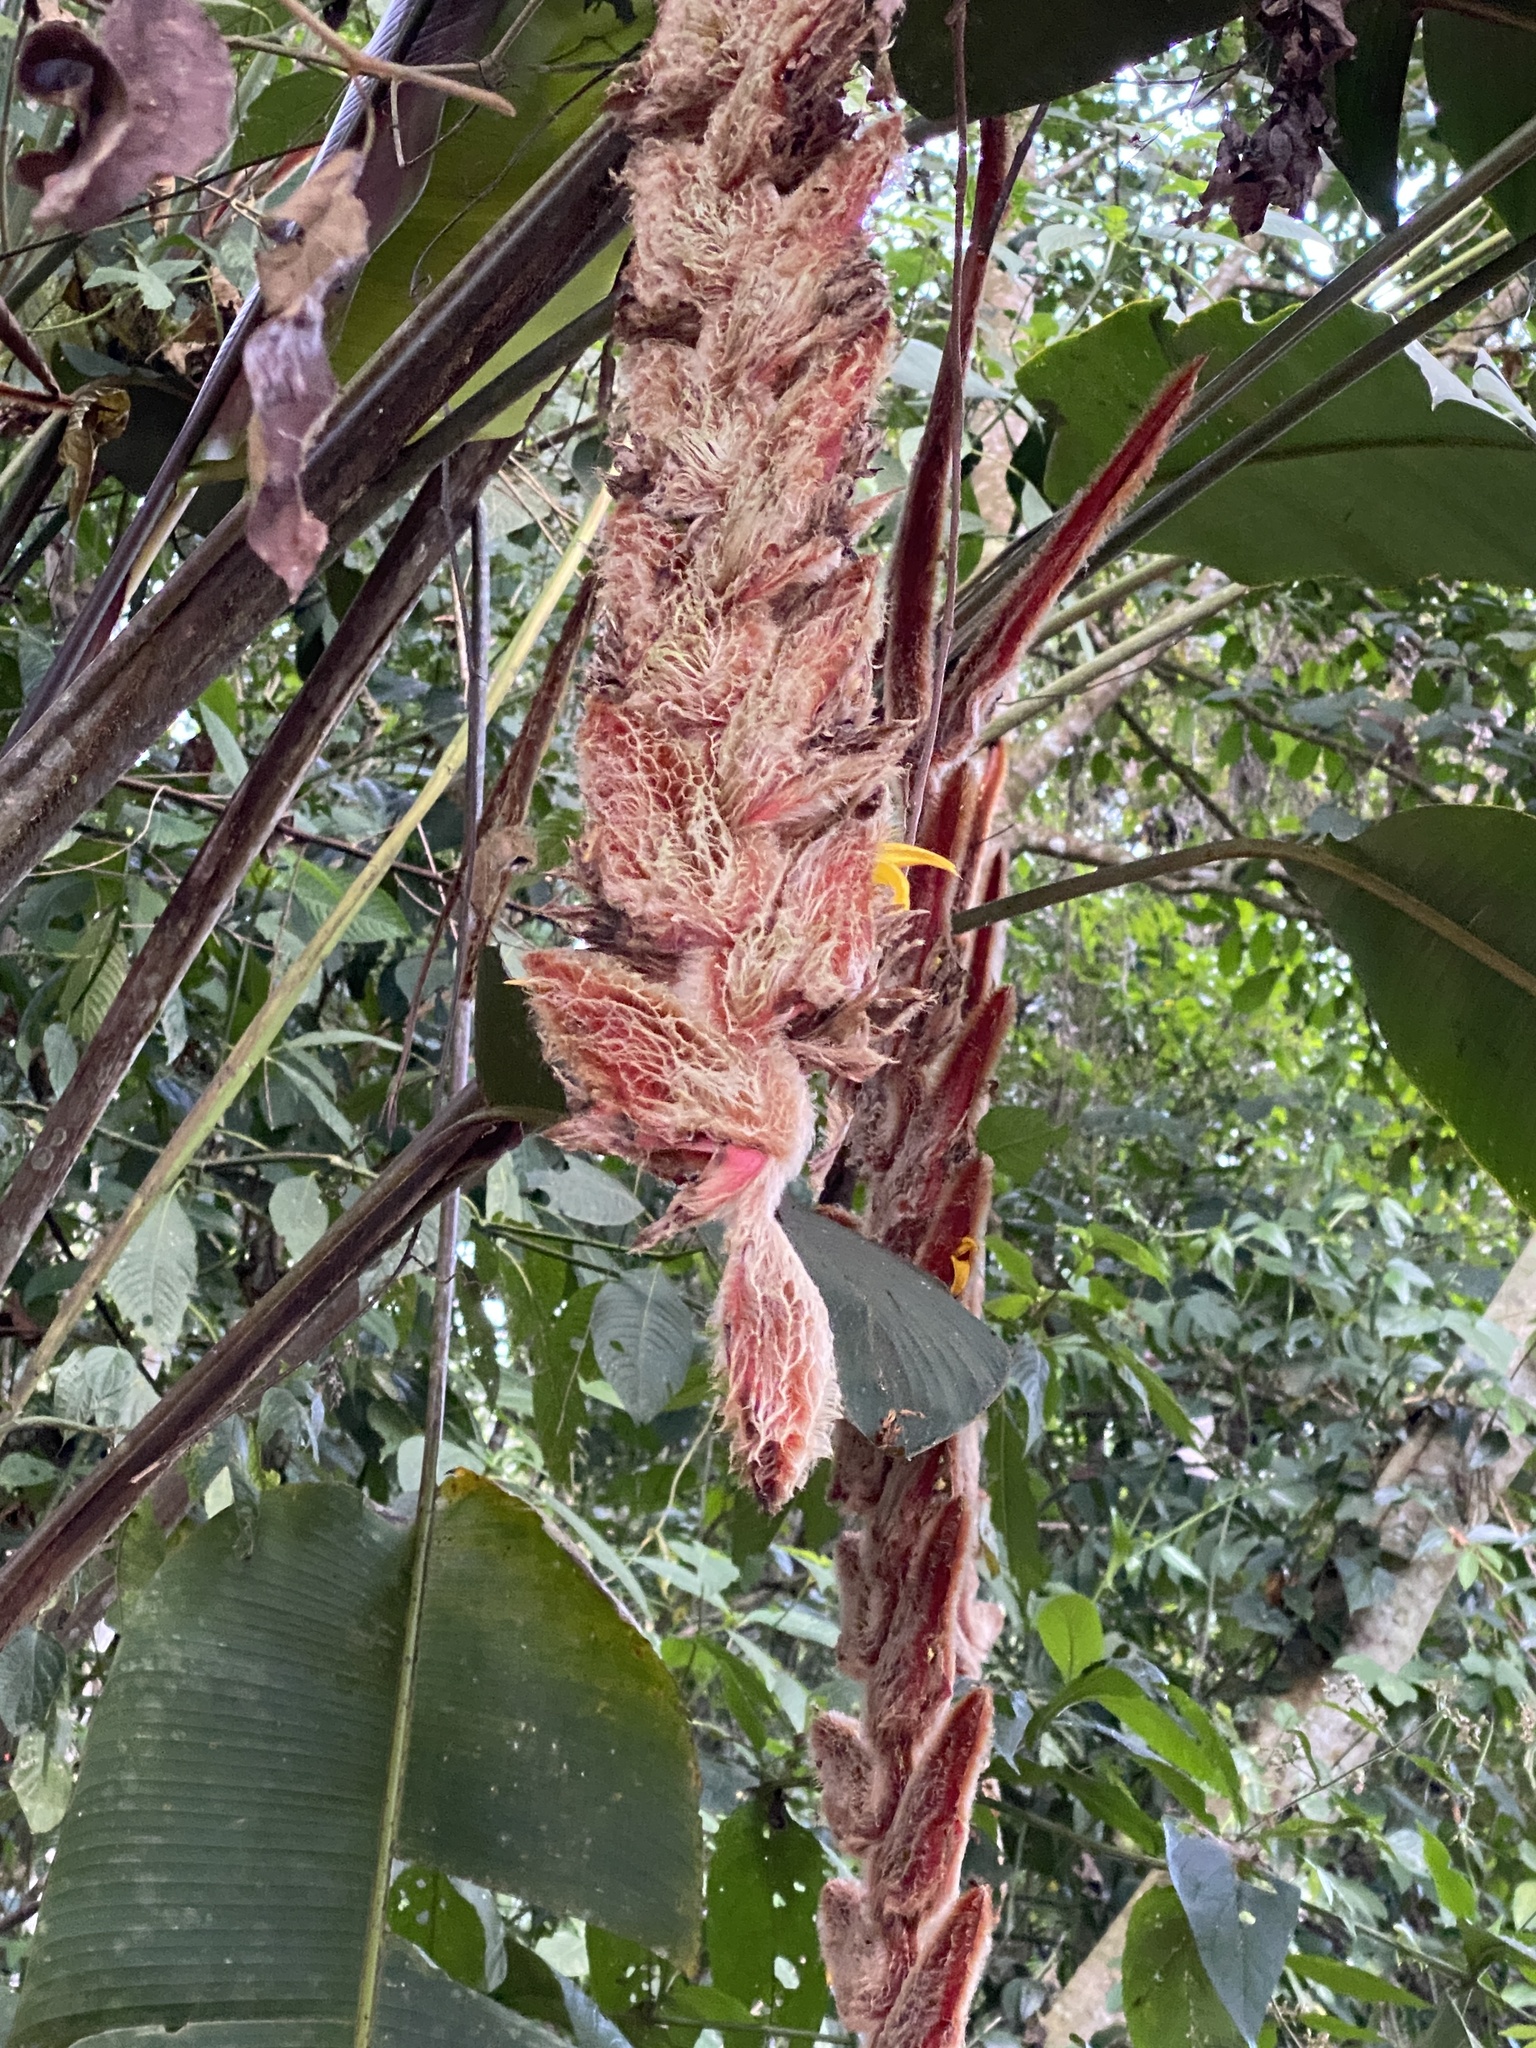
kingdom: Plantae
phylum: Tracheophyta
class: Liliopsida
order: Zingiberales
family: Heliconiaceae
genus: Heliconia
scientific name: Heliconia vellerigera
